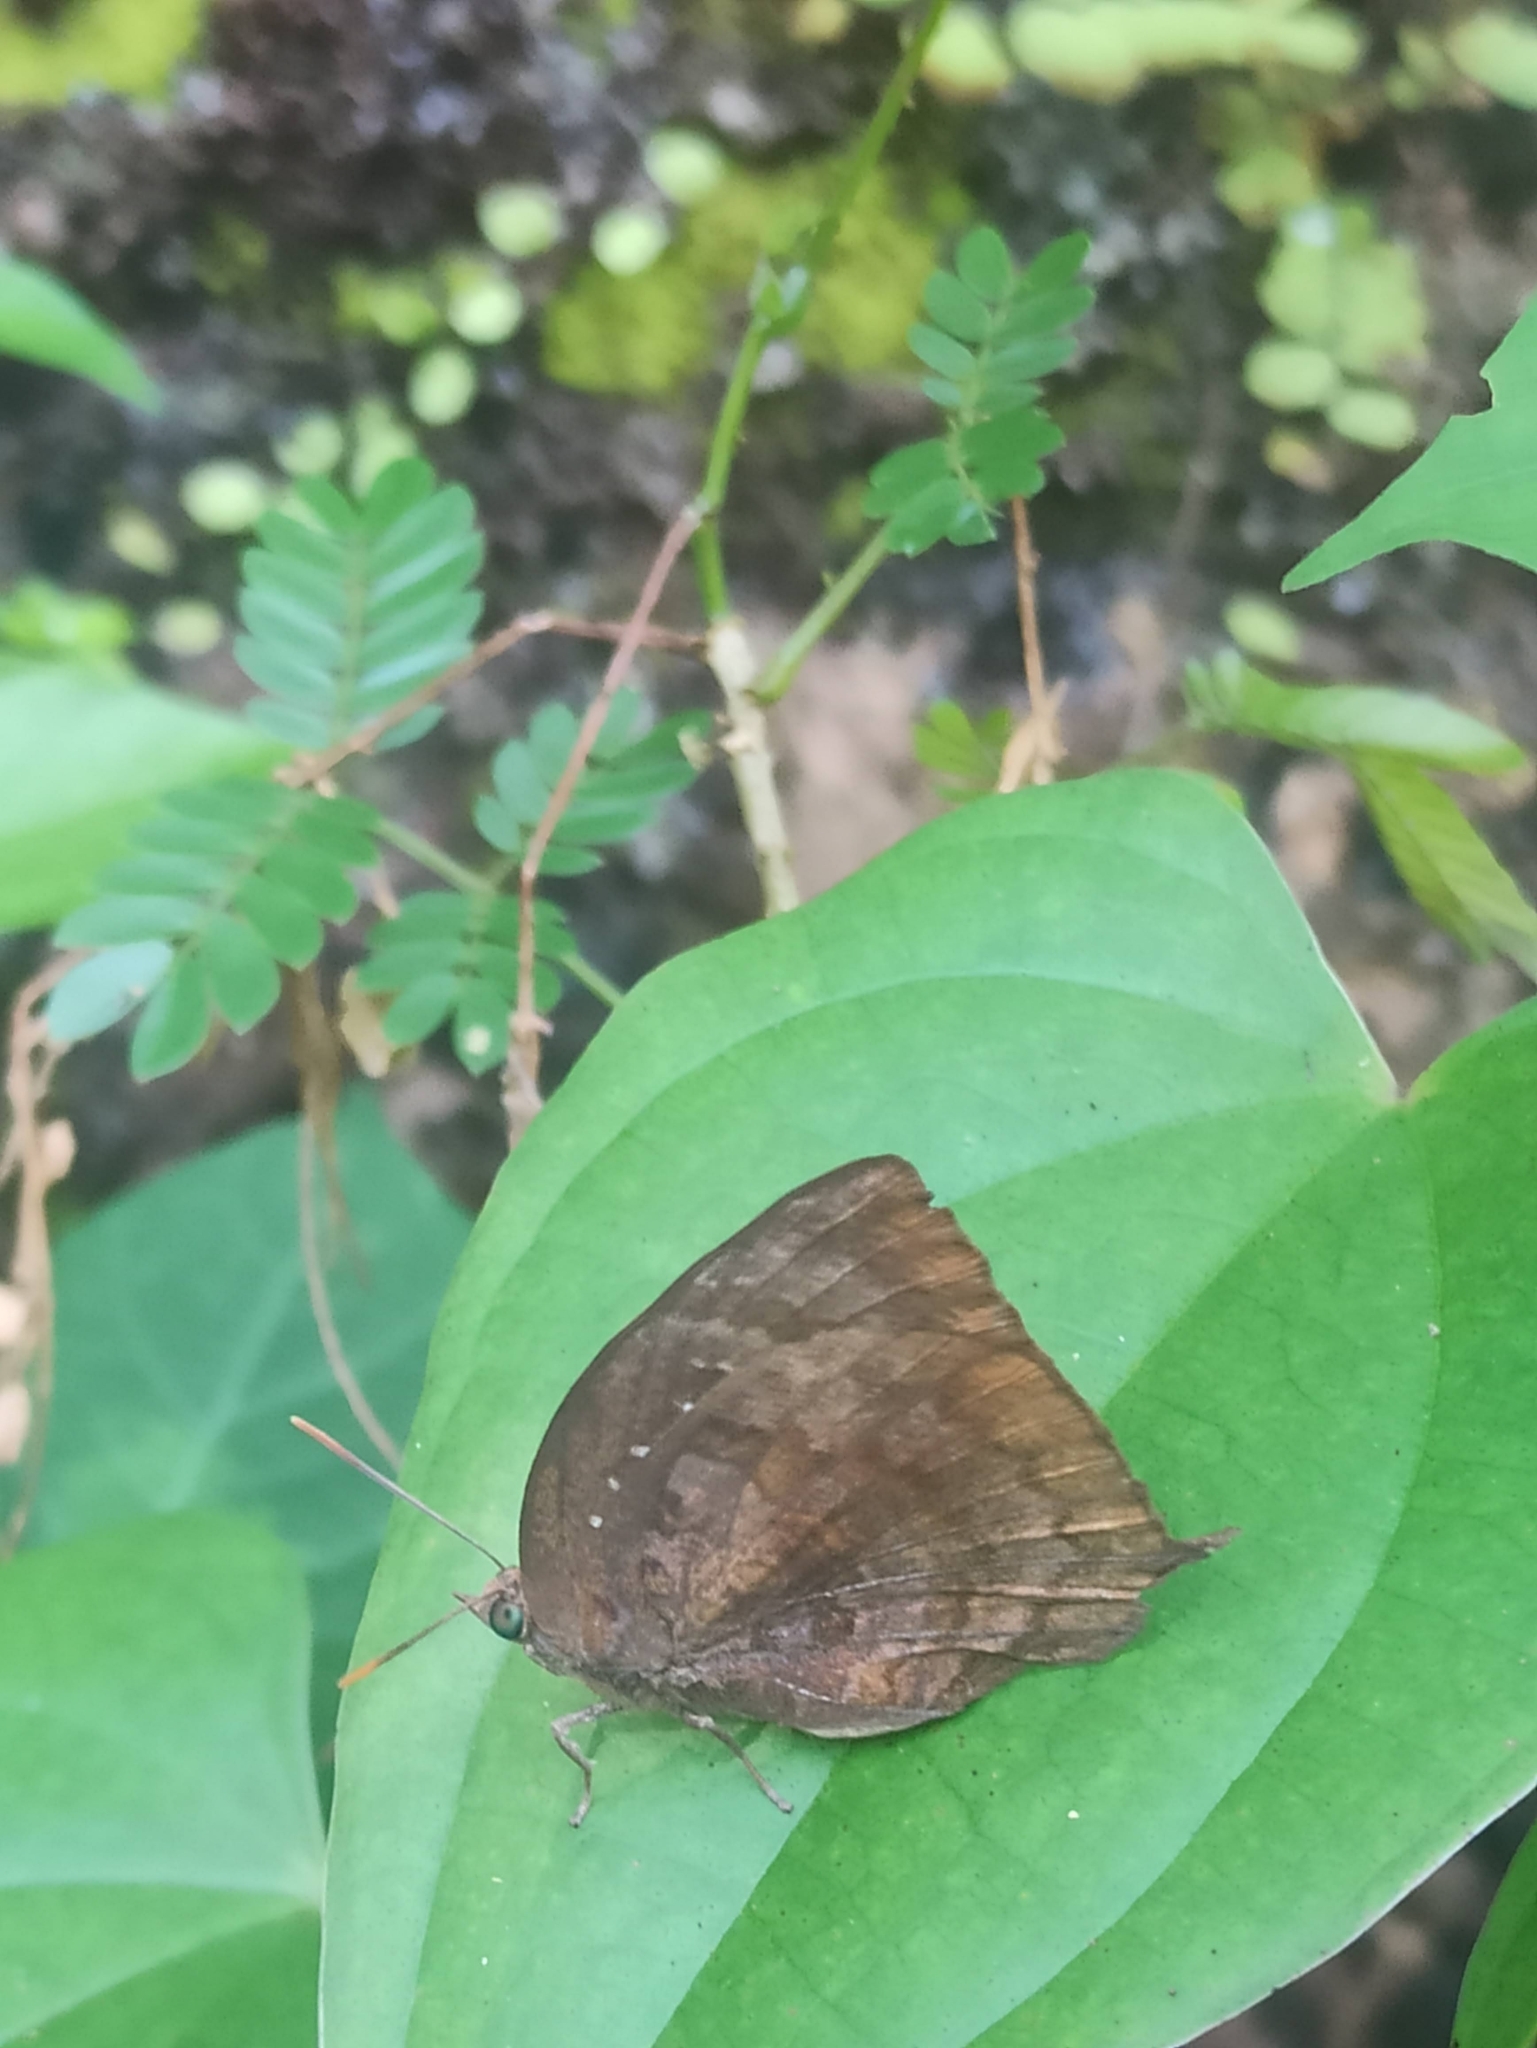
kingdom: Animalia
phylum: Arthropoda
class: Insecta
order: Lepidoptera
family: Lycaenidae
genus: Arhopala
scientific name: Arhopala centaurus
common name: Dull oak-blue
